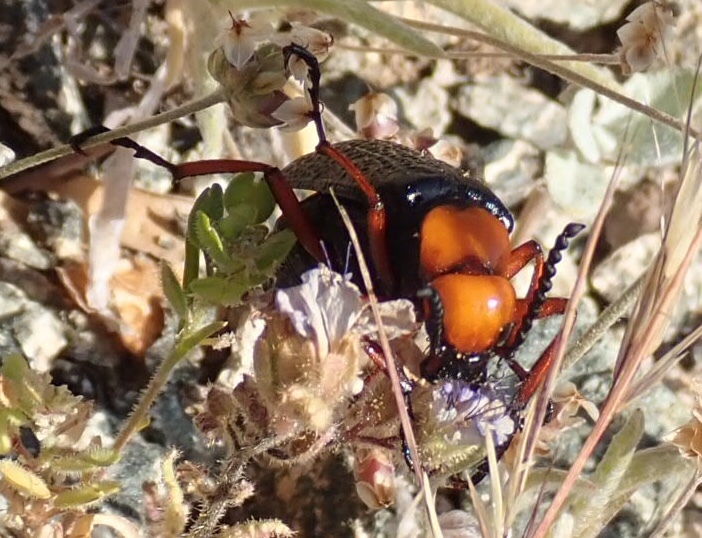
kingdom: Animalia
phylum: Arthropoda
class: Insecta
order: Coleoptera
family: Meloidae
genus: Lytta
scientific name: Lytta magister
